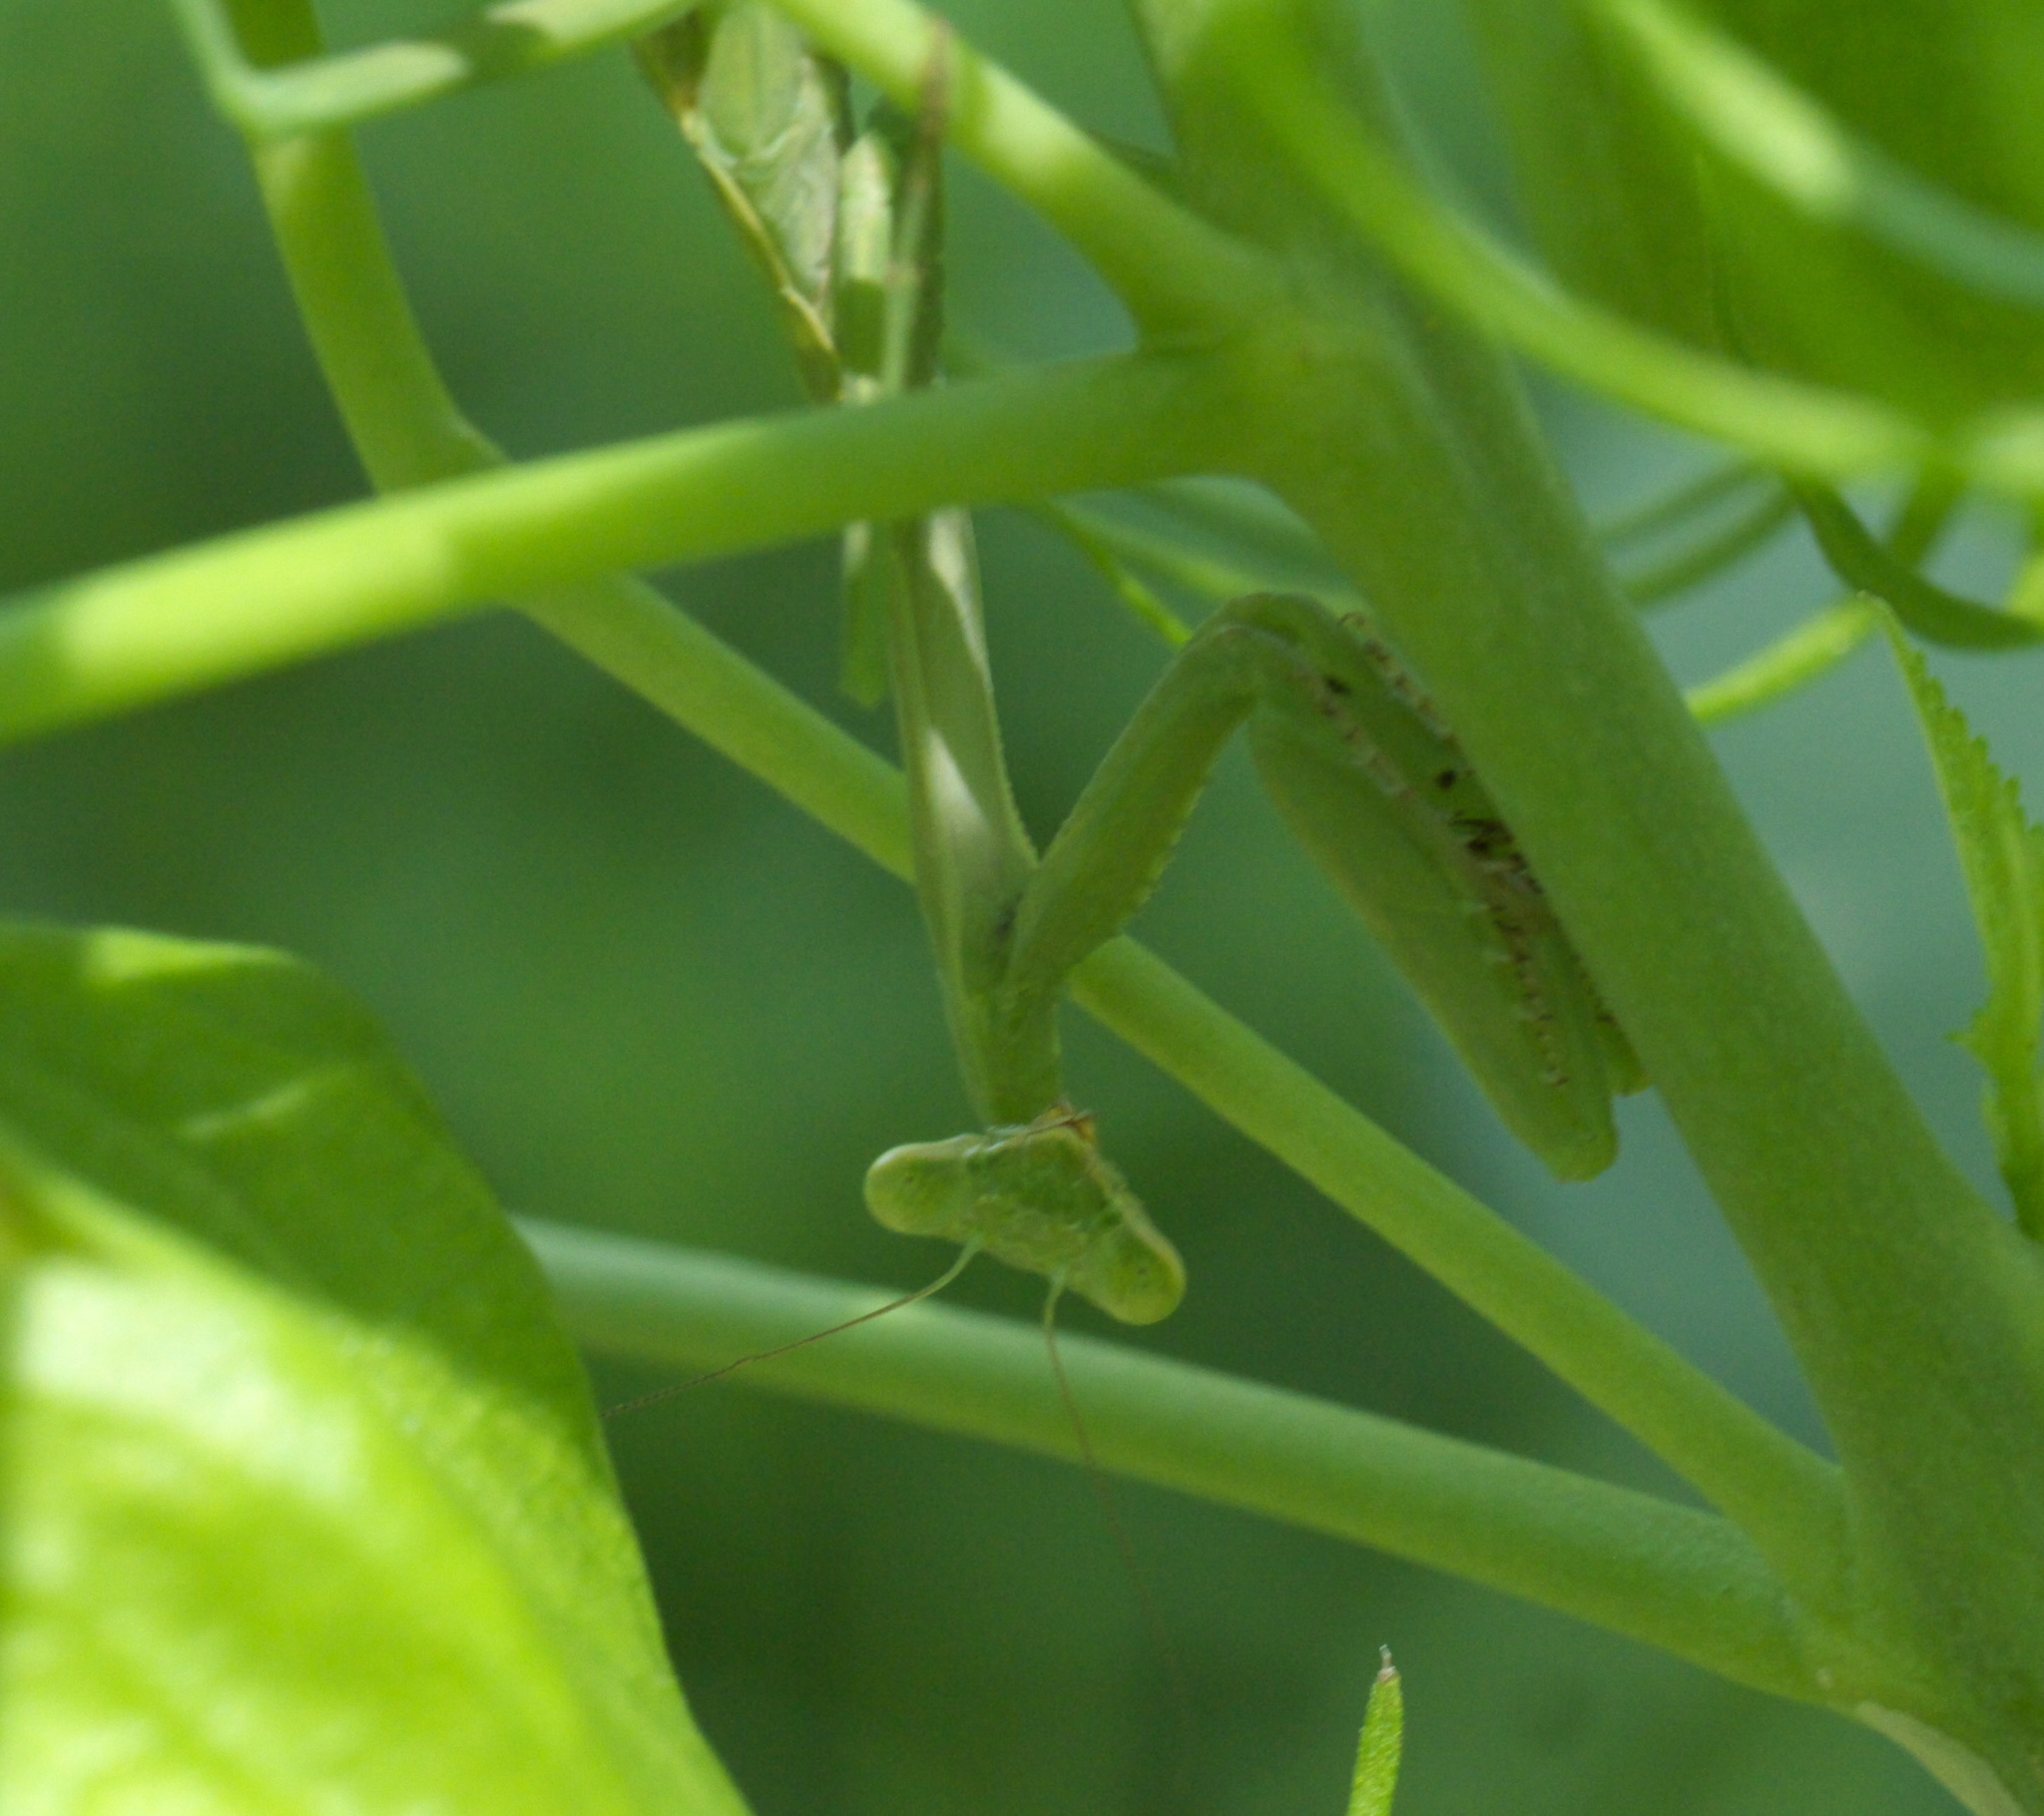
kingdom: Animalia
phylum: Arthropoda
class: Insecta
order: Mantodea
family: Mantidae
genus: Stagmomantis
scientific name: Stagmomantis carolina
